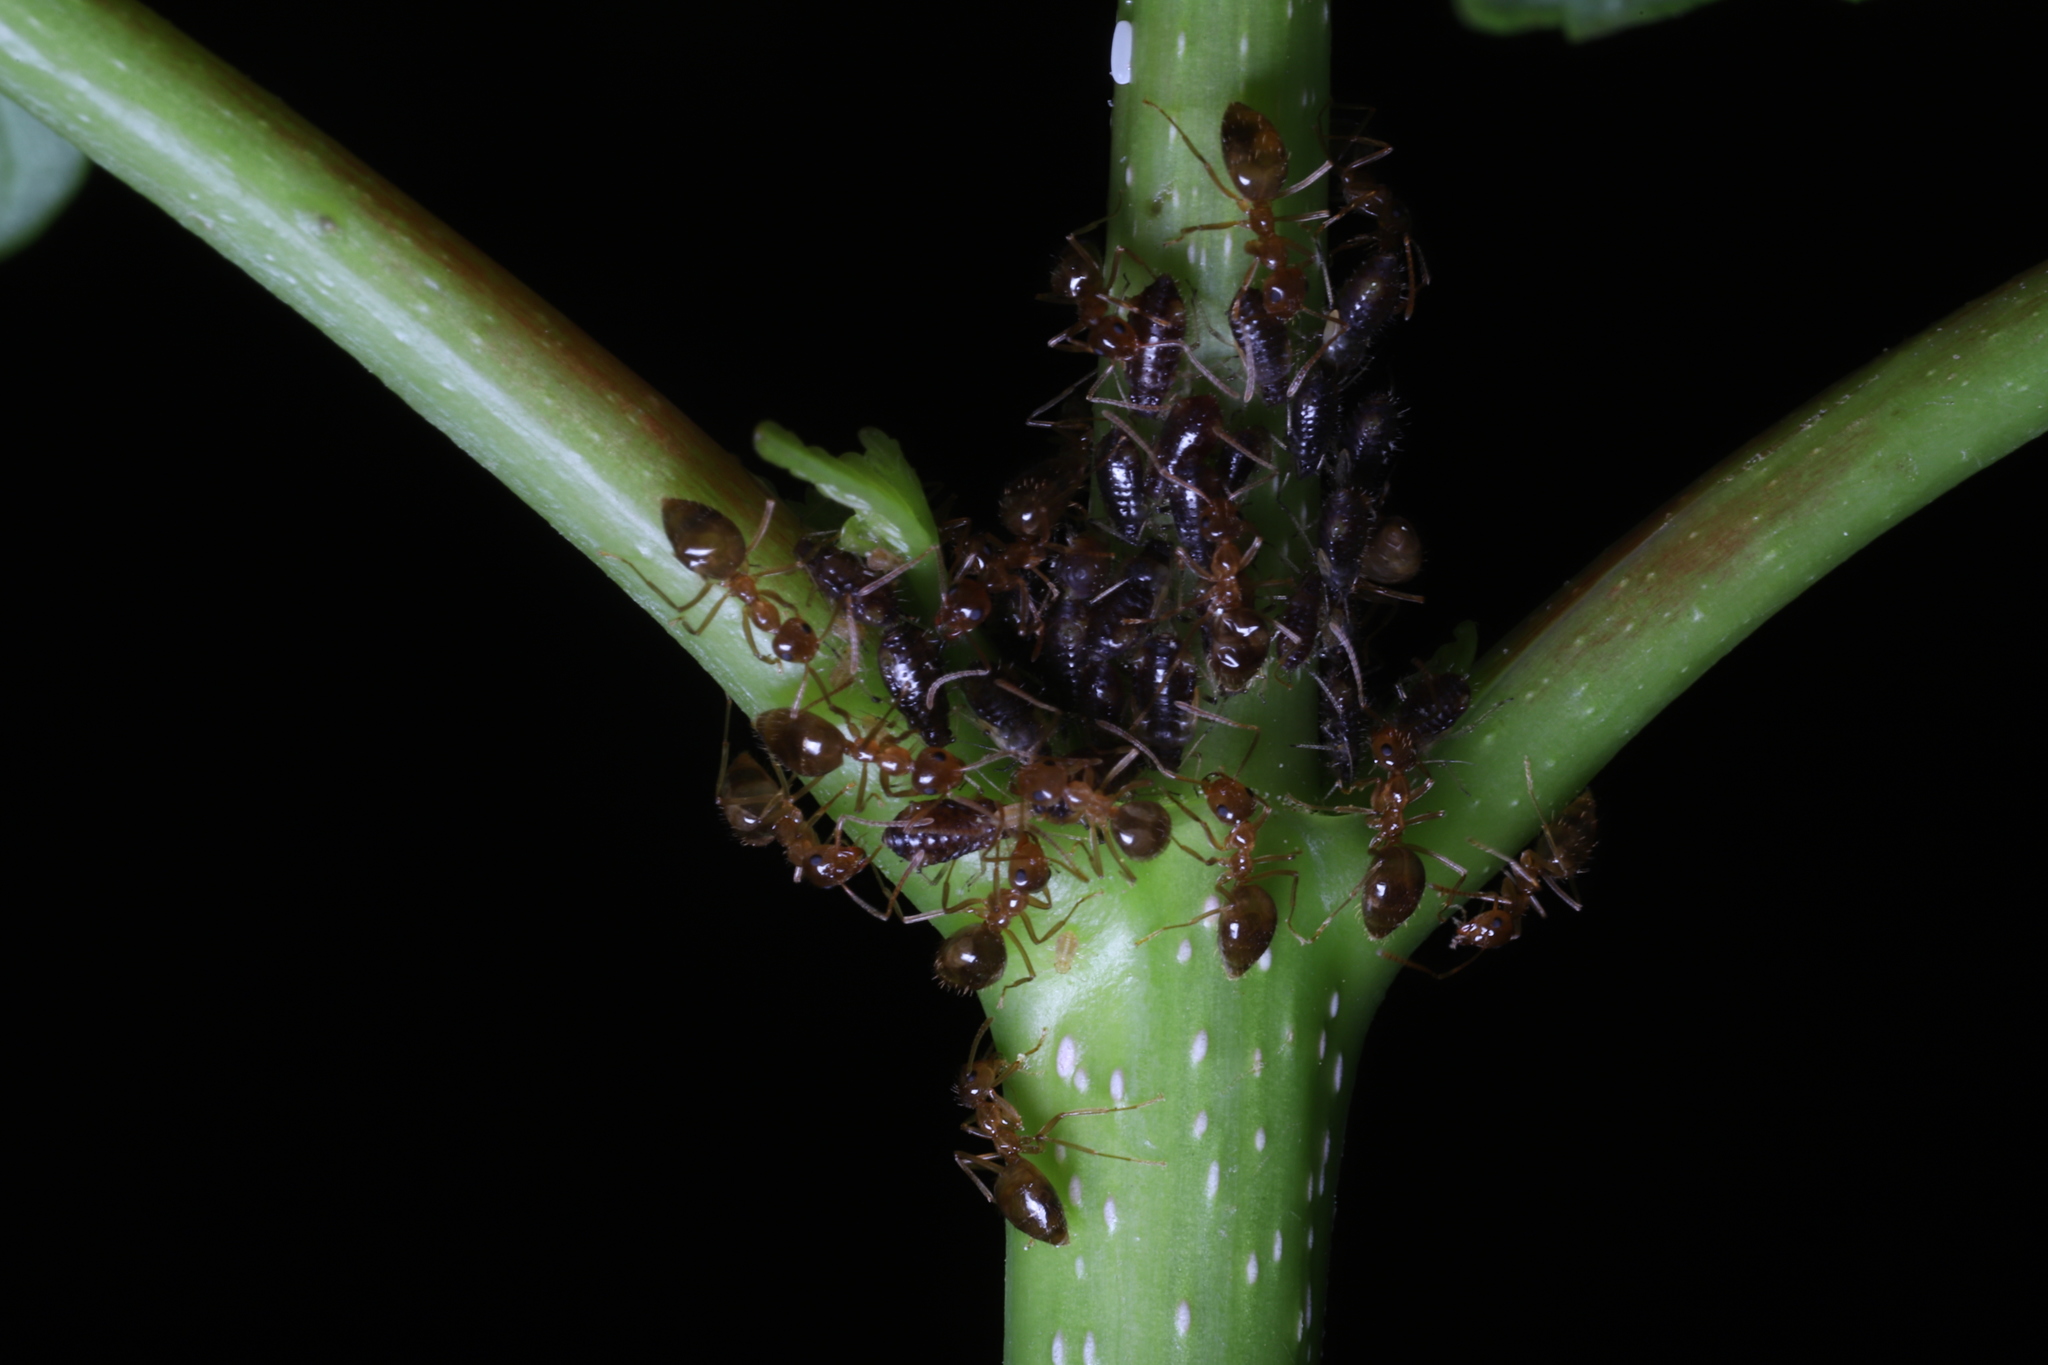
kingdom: Animalia
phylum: Arthropoda
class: Insecta
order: Hymenoptera
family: Formicidae
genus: Prenolepis
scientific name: Prenolepis imparis
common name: Small honey ant
